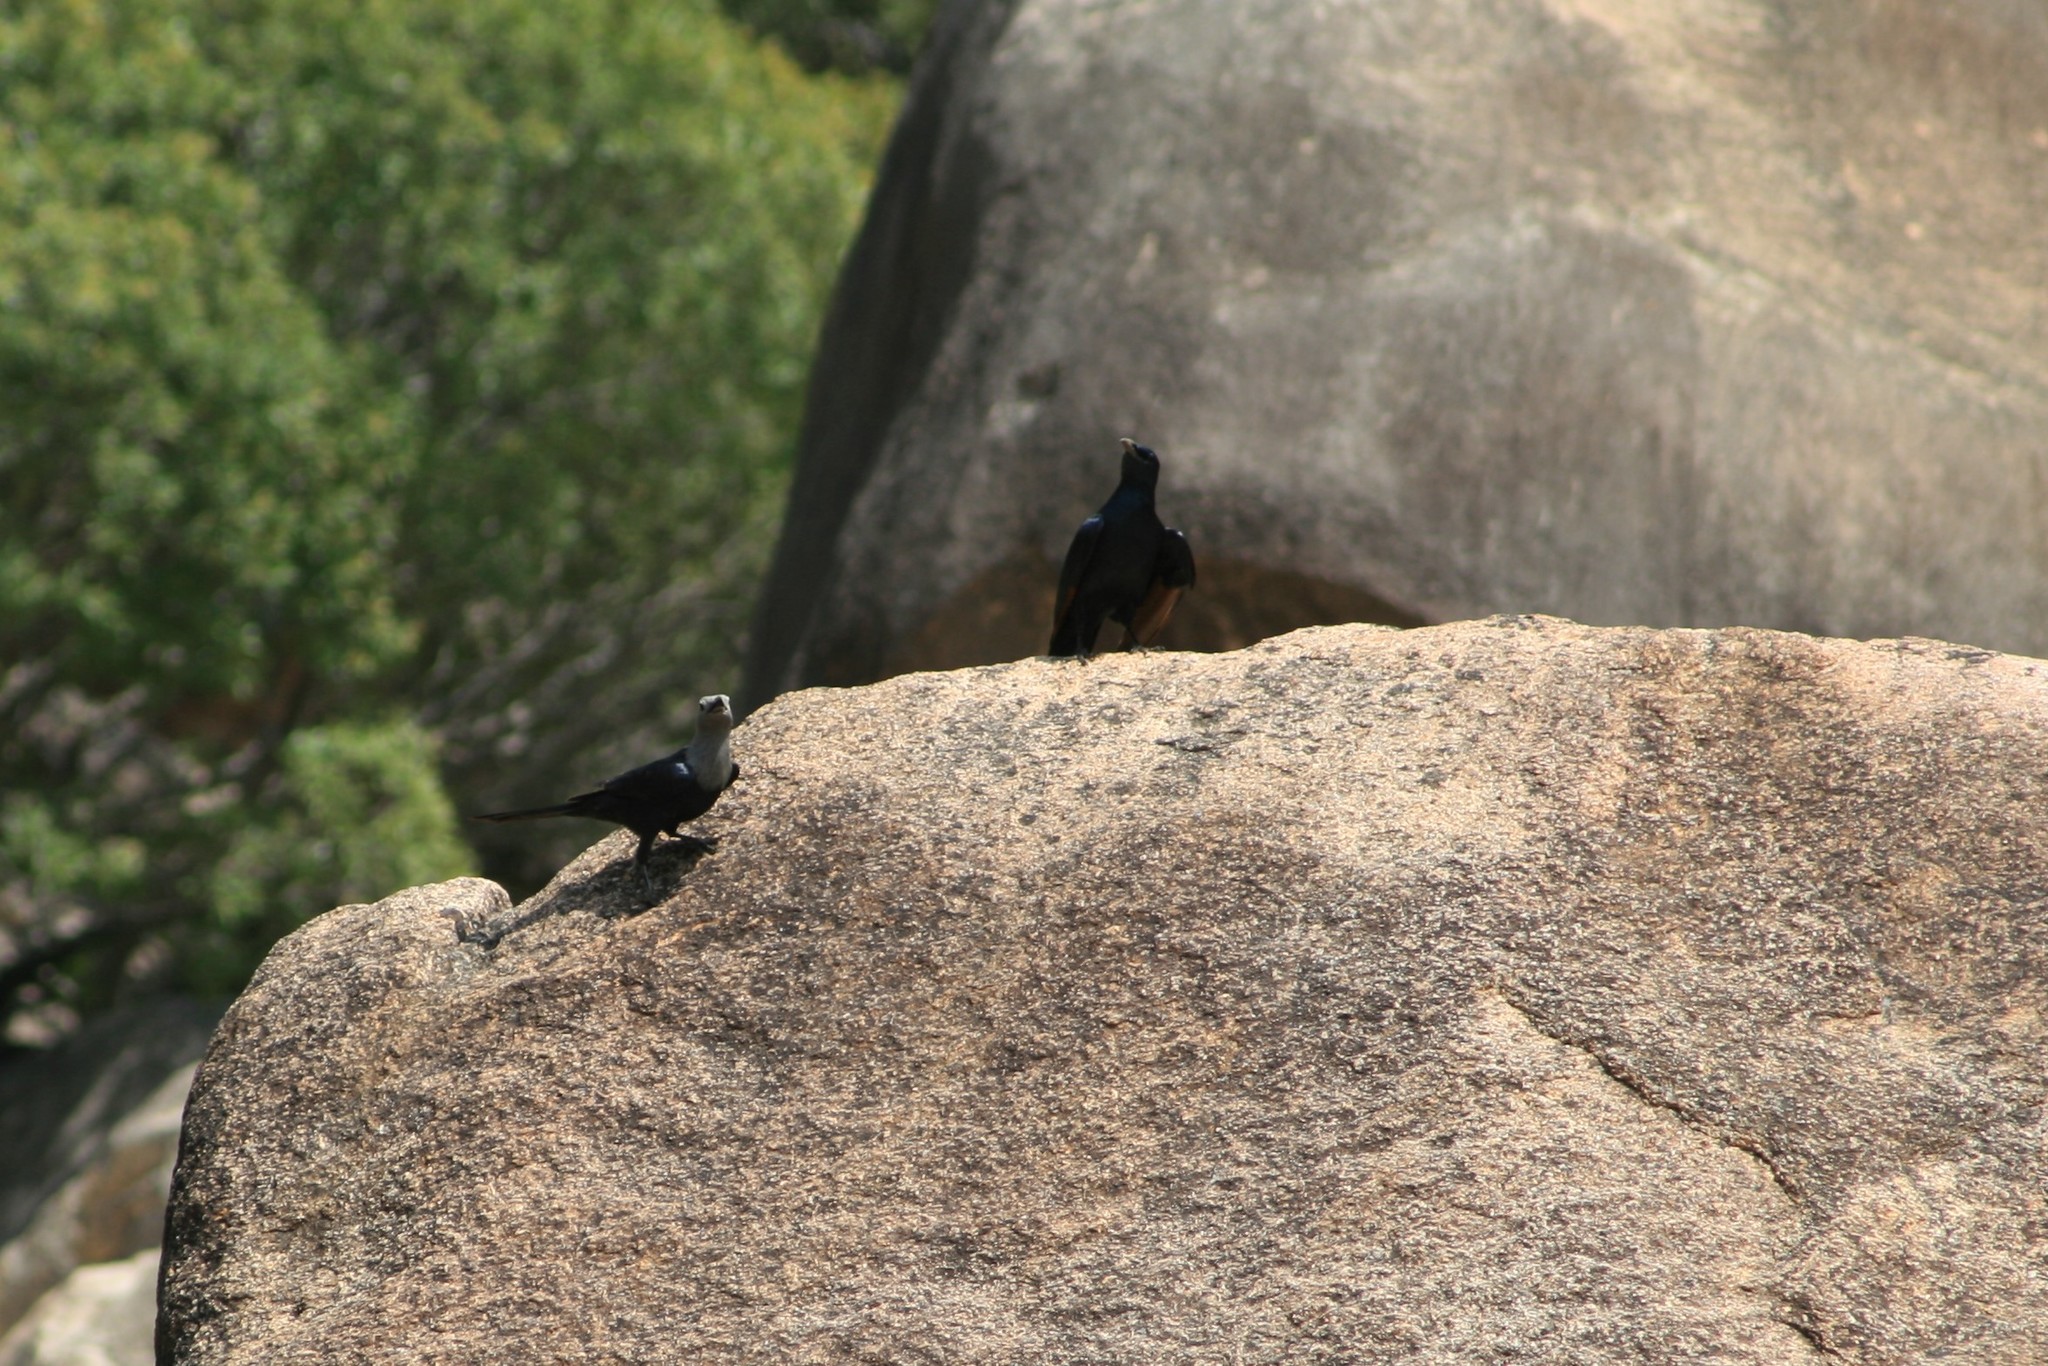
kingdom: Animalia
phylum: Chordata
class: Aves
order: Passeriformes
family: Sturnidae
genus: Onychognathus
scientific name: Onychognathus blythii
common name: Somali starling
